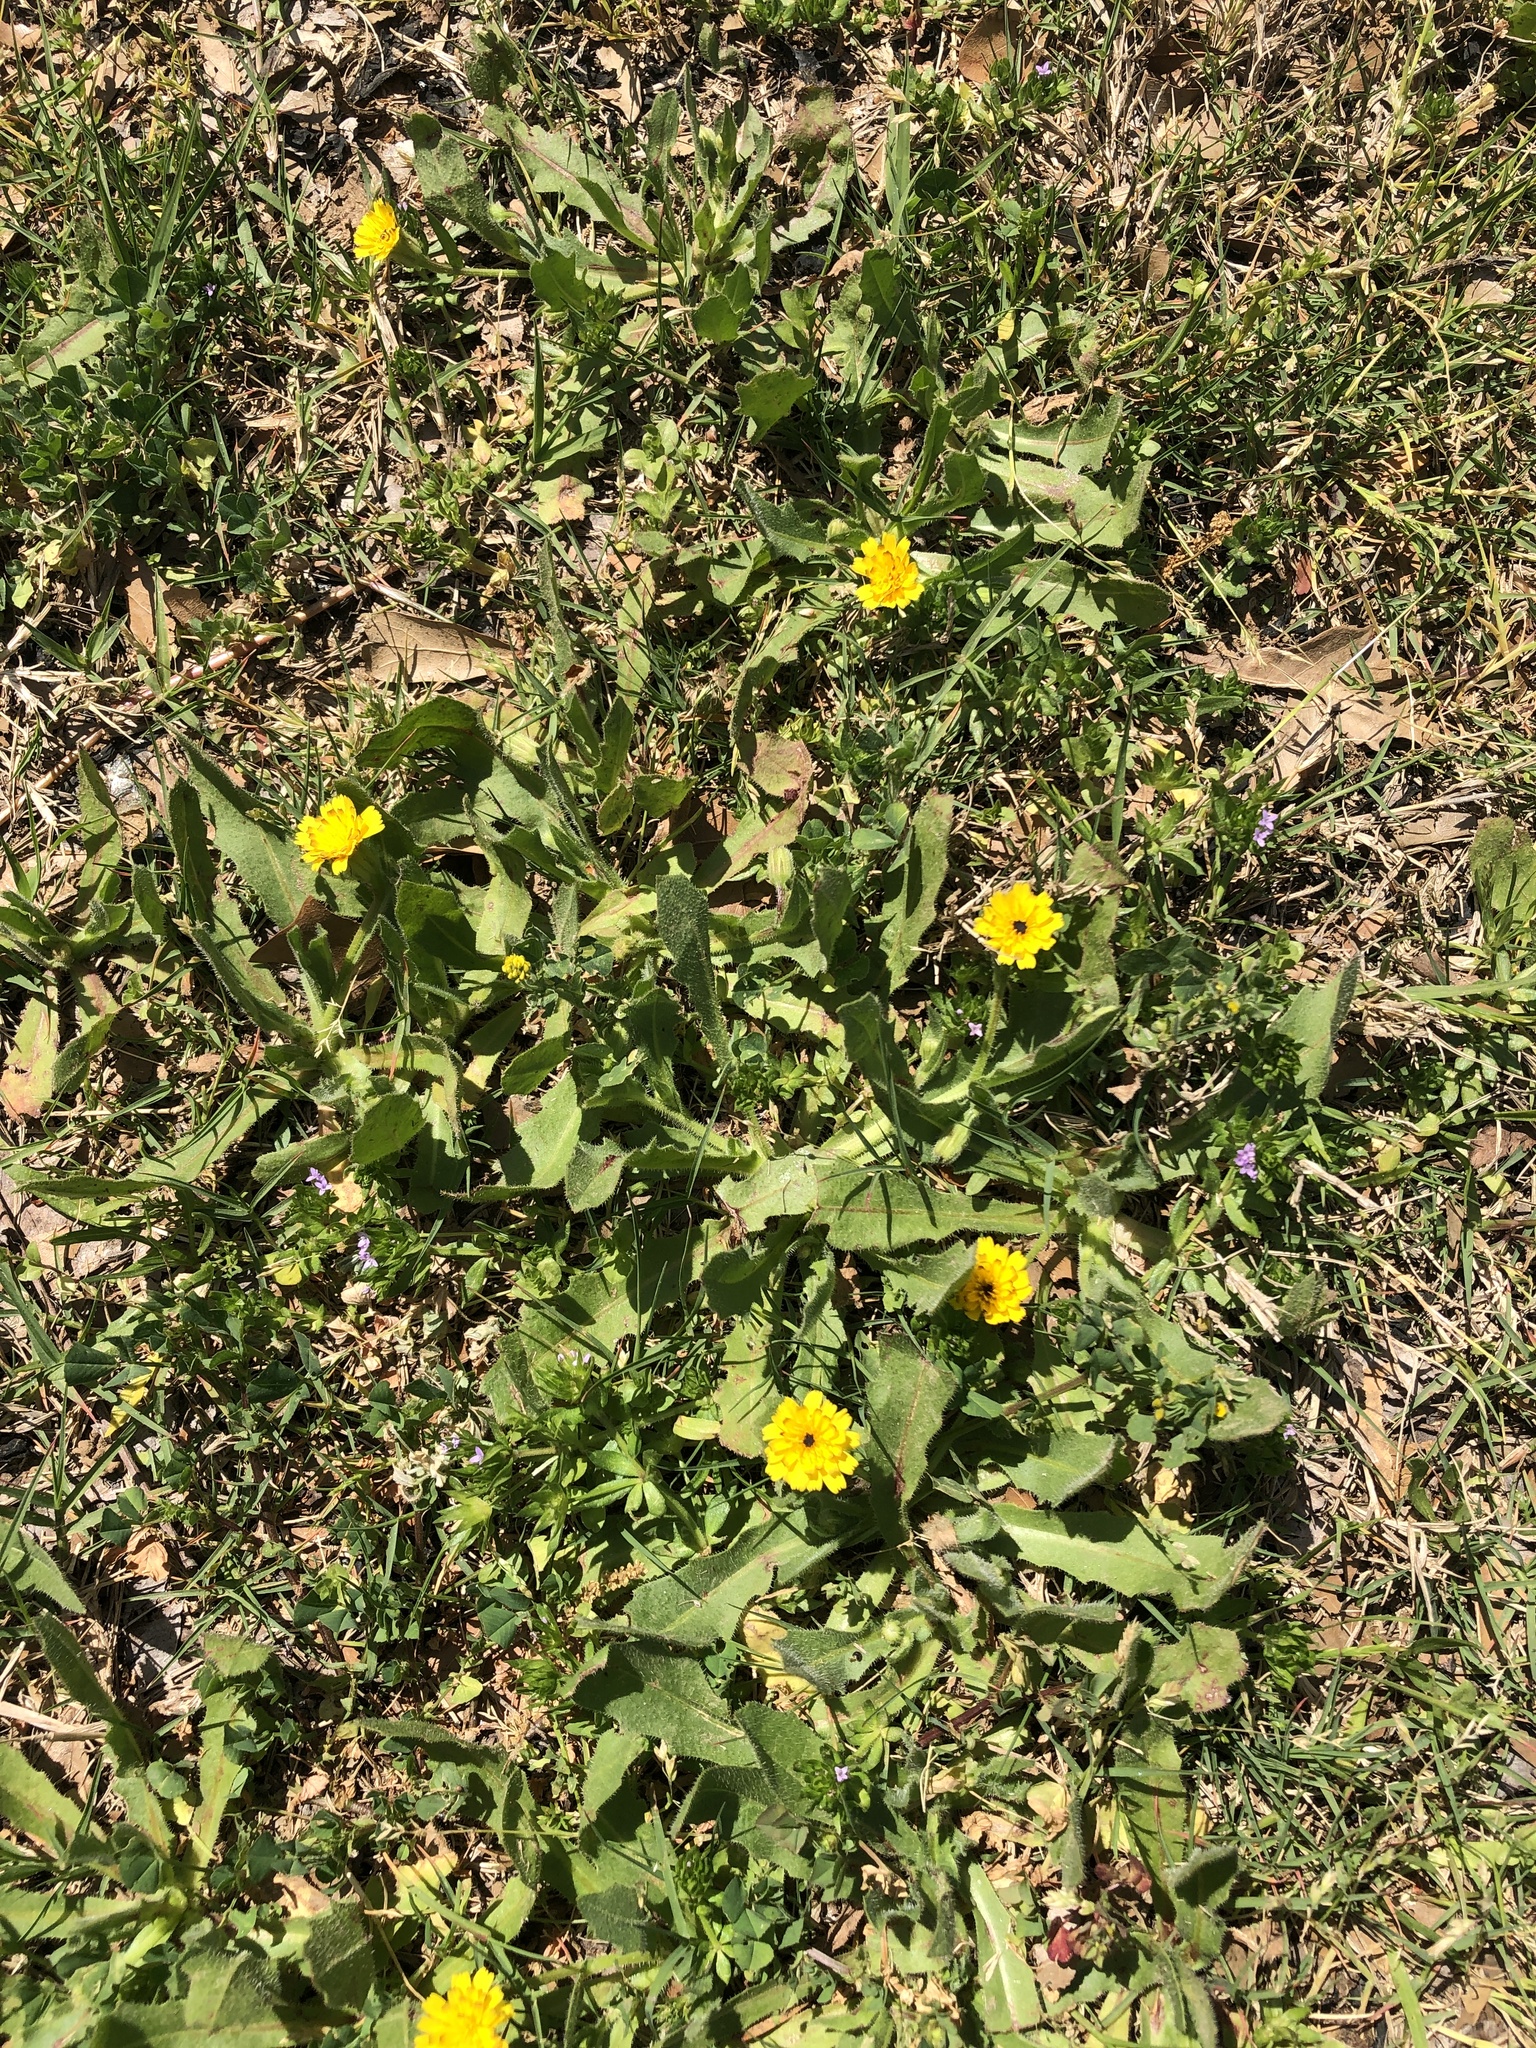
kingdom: Plantae
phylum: Tracheophyta
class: Magnoliopsida
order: Asterales
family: Asteraceae
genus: Hedypnois
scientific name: Hedypnois rhagadioloides
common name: Cretan weed
